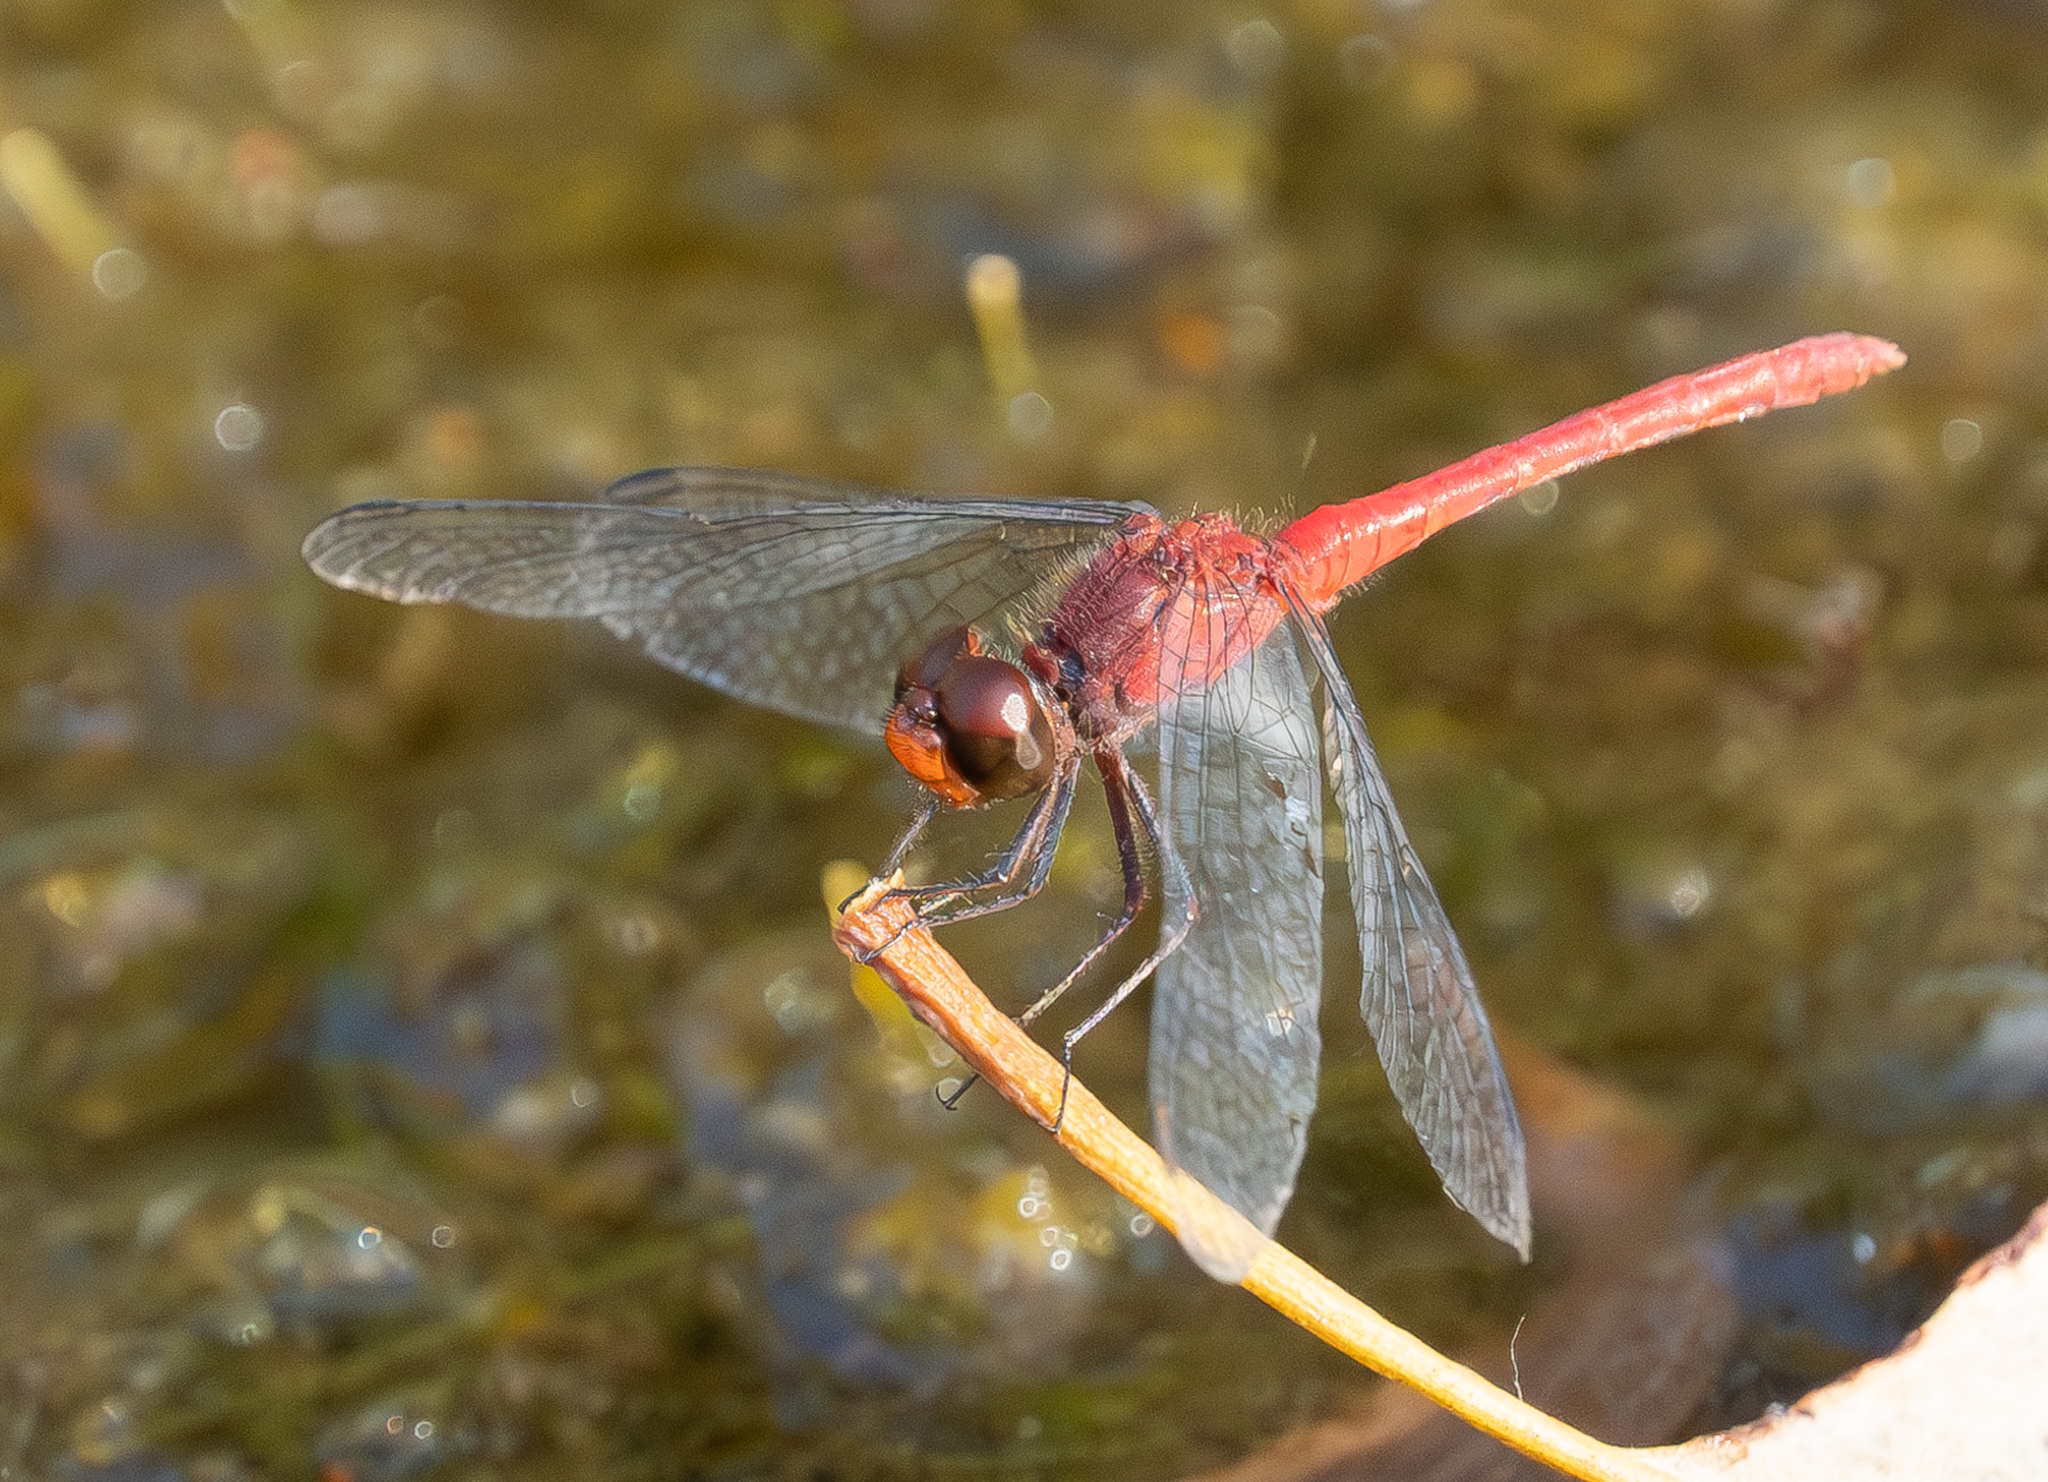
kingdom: Animalia
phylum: Arthropoda
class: Insecta
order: Odonata
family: Libellulidae
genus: Diplacodes
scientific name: Diplacodes bipunctata
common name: Red percher dragonfly
